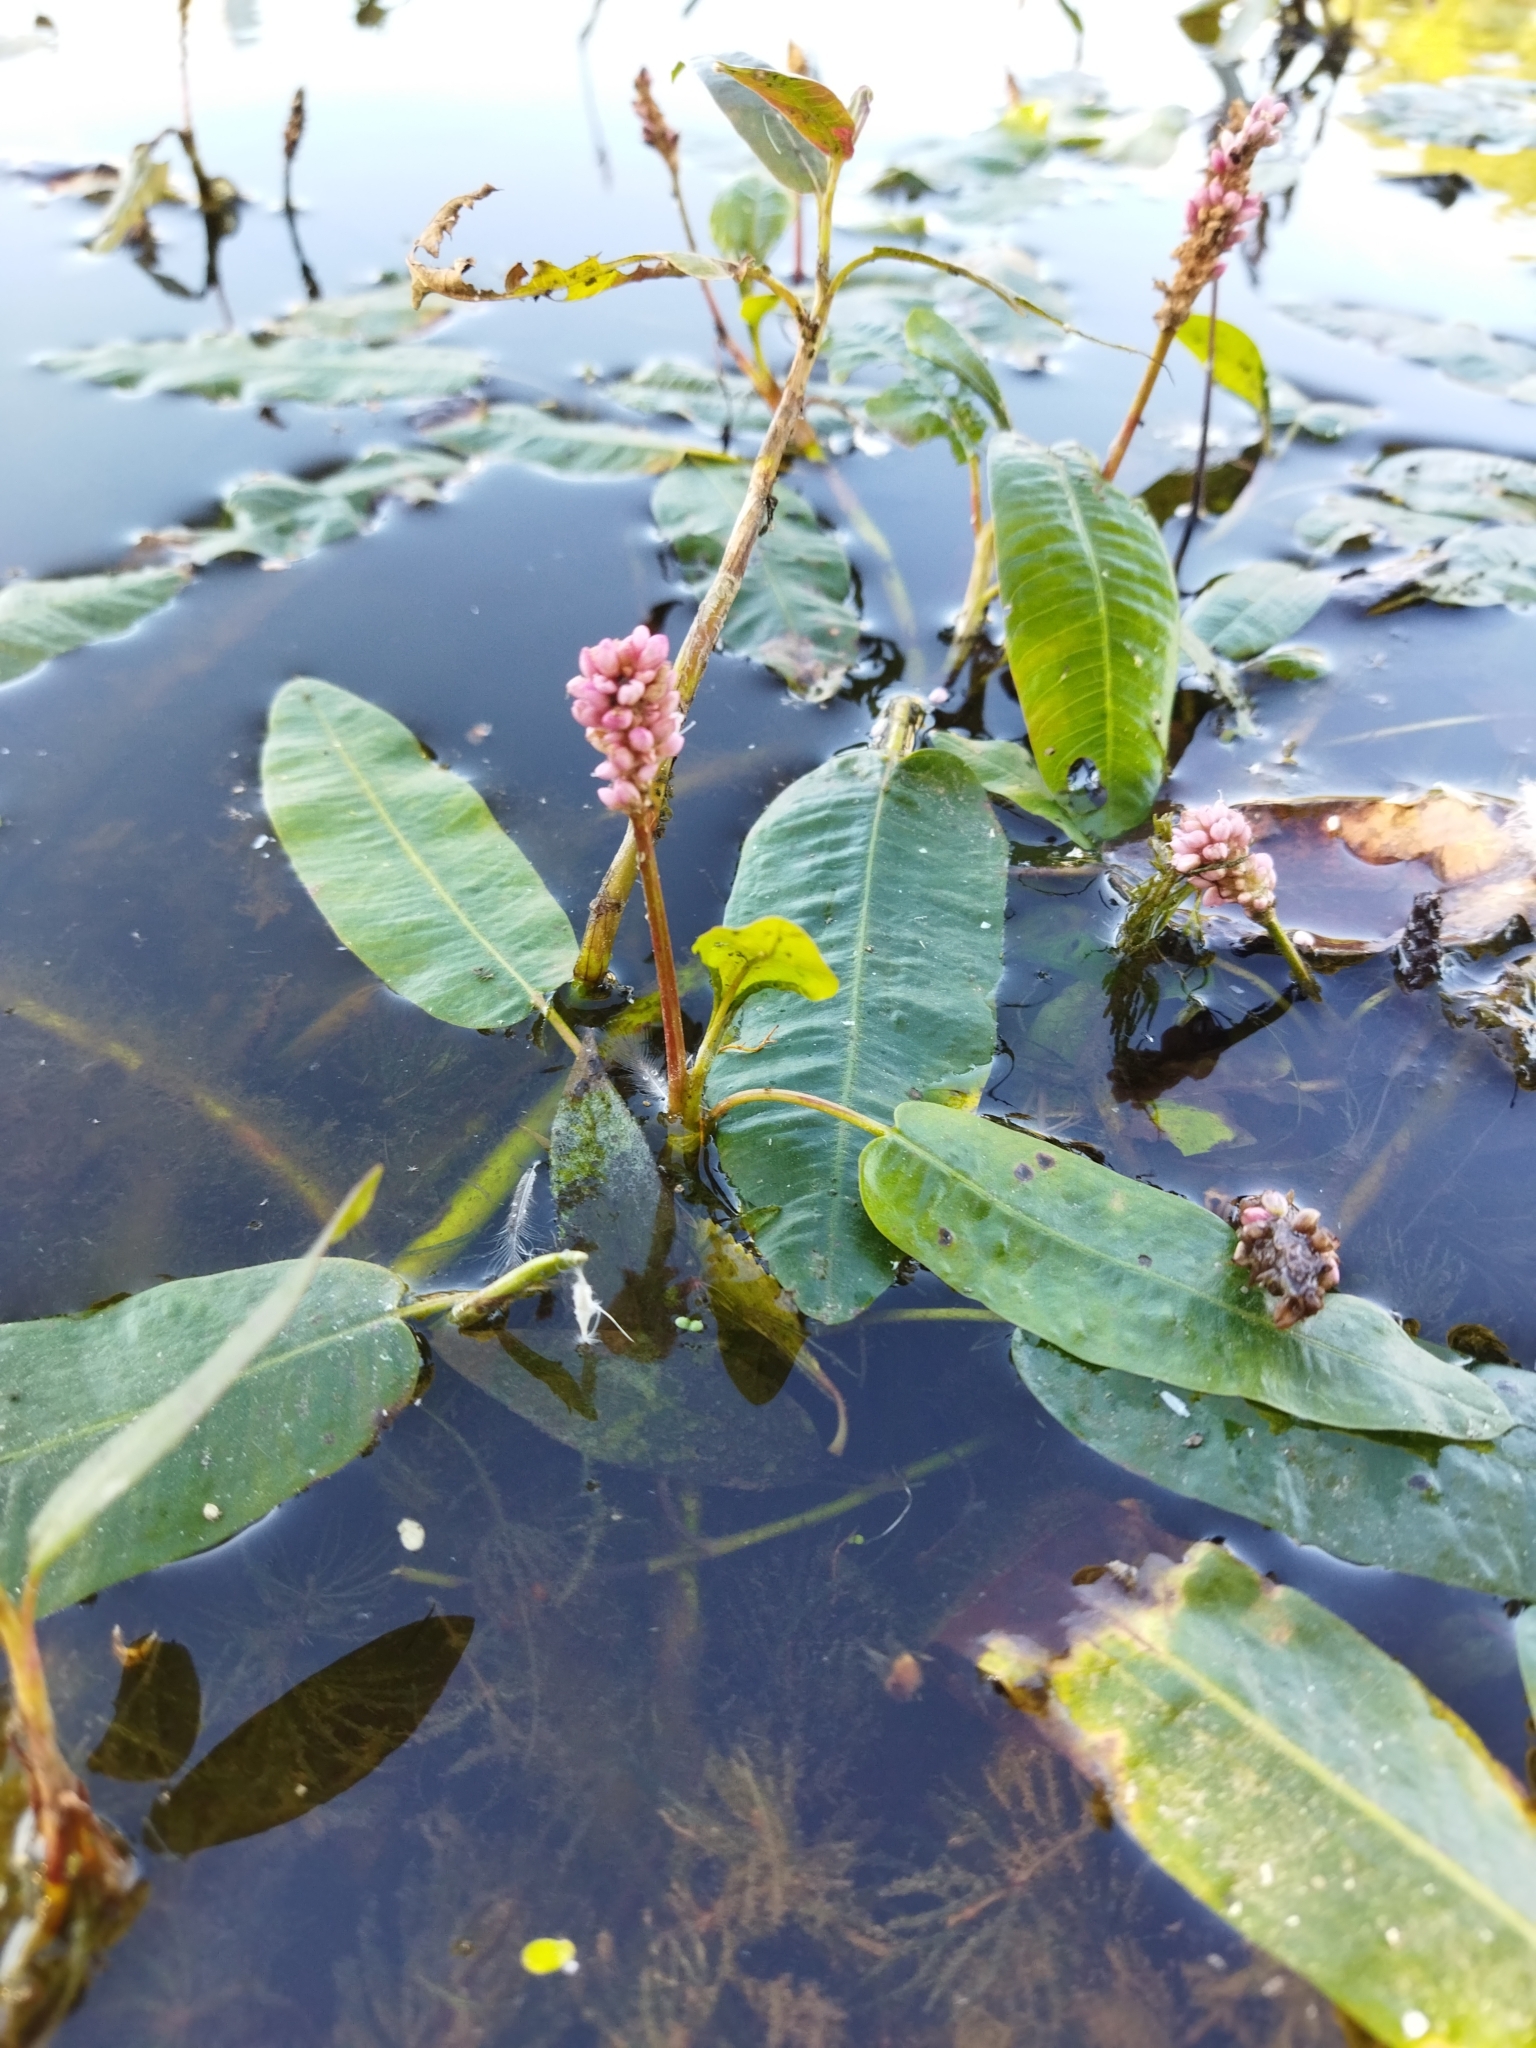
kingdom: Plantae
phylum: Tracheophyta
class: Magnoliopsida
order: Caryophyllales
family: Polygonaceae
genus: Persicaria
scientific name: Persicaria amphibia
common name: Amphibious bistort
